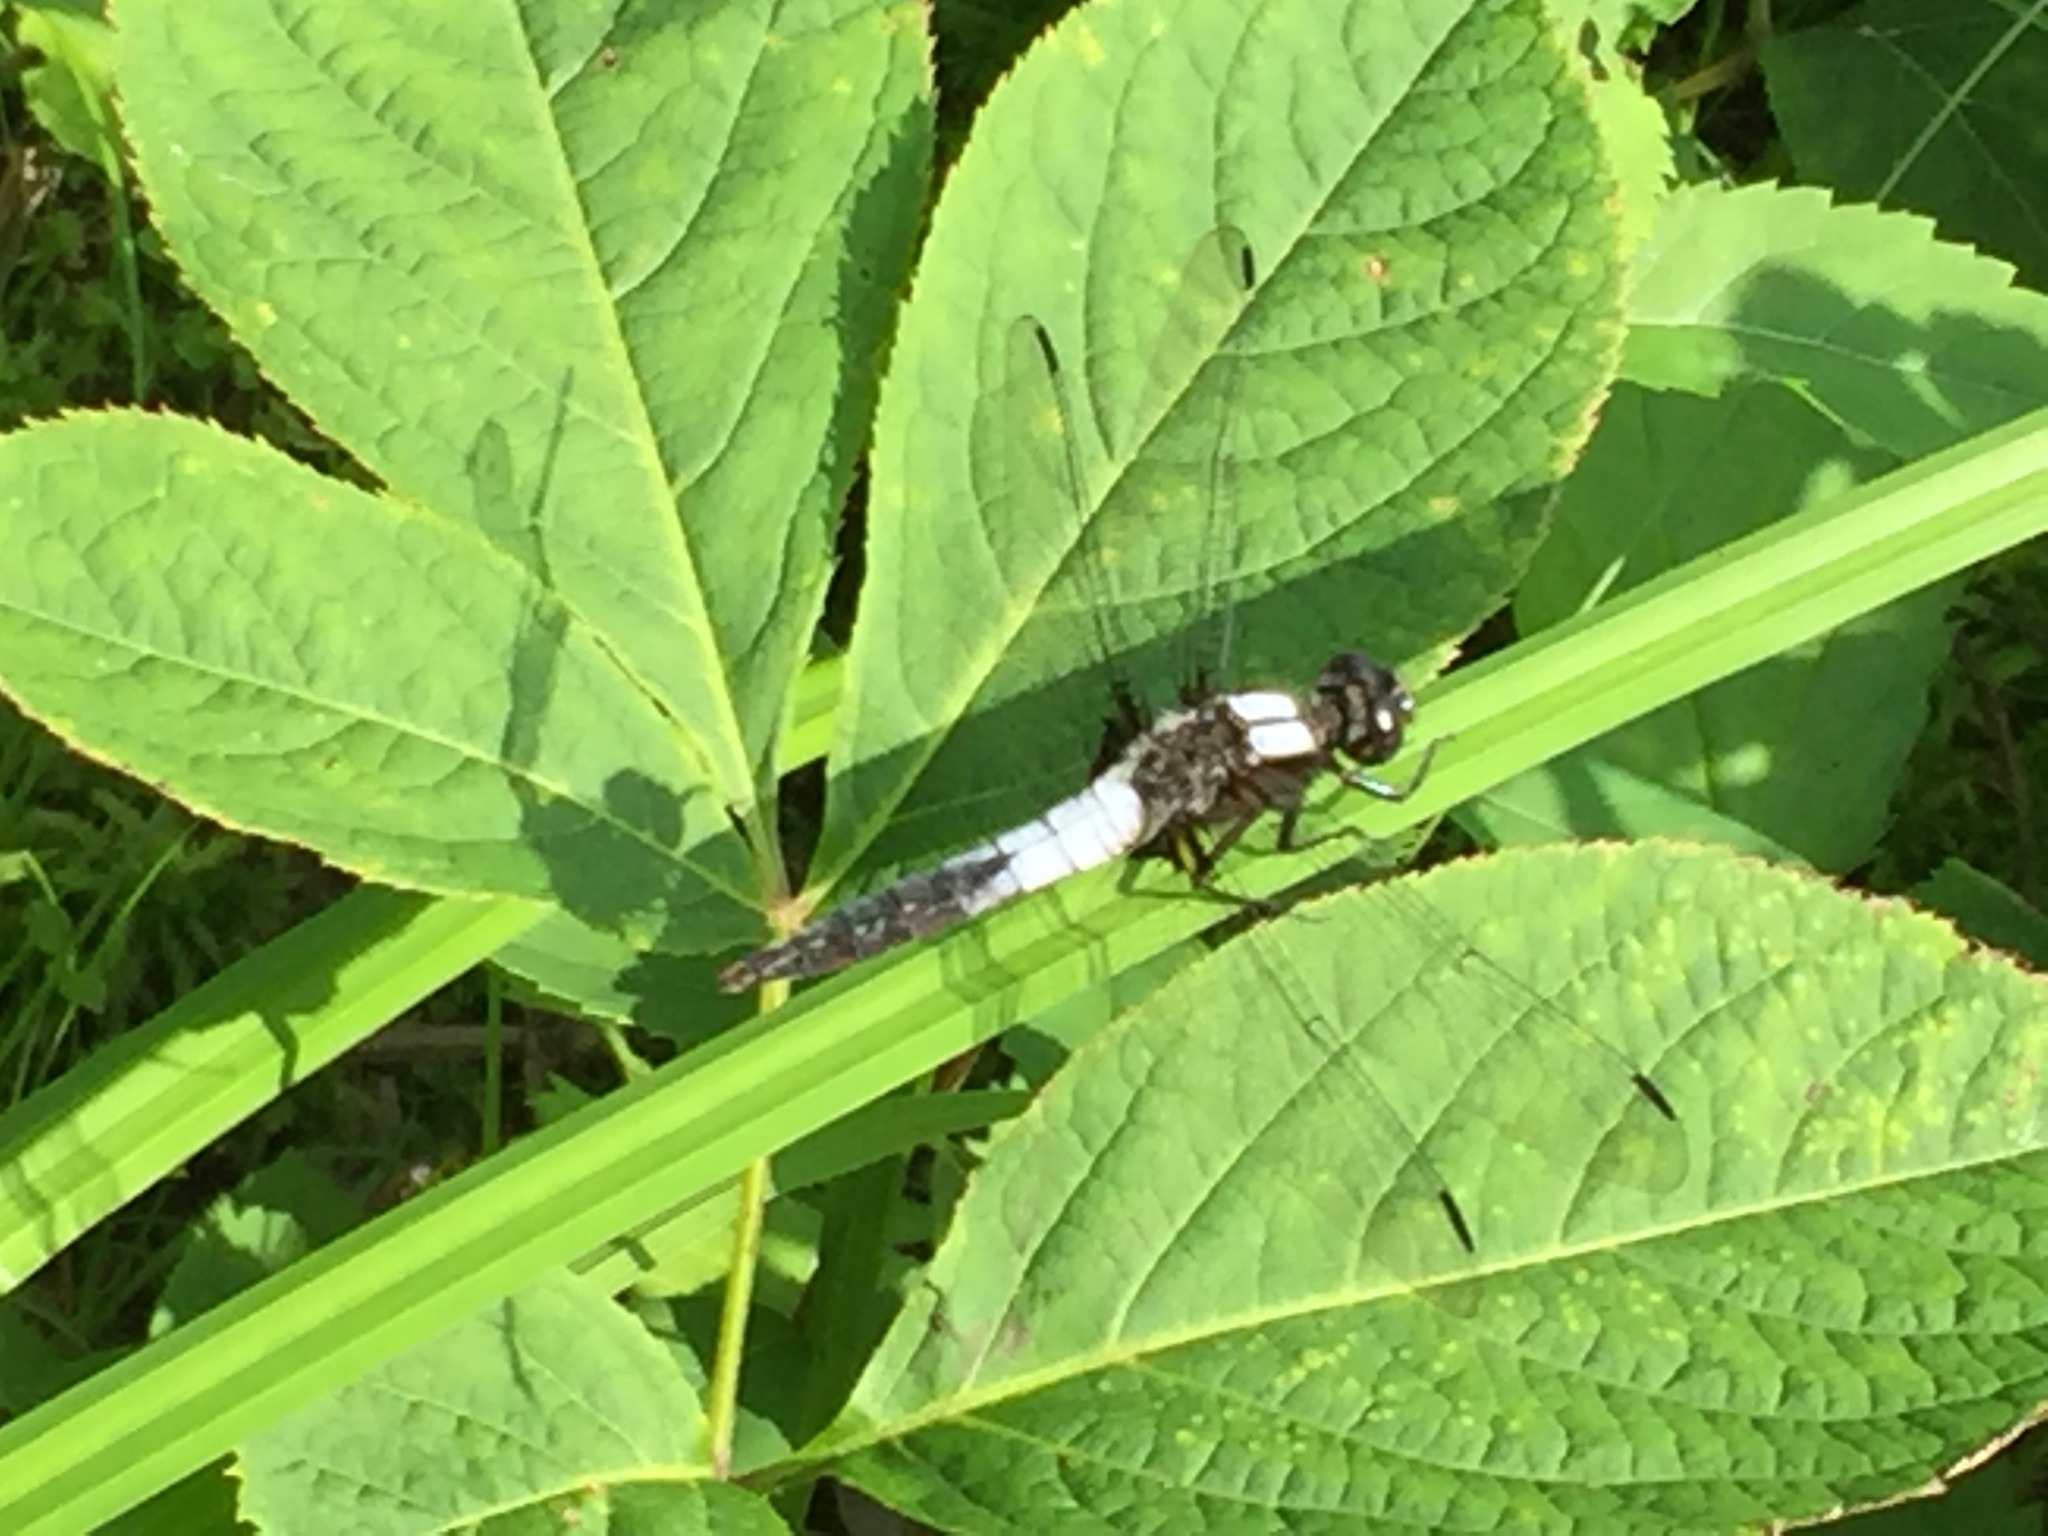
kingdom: Animalia
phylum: Arthropoda
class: Insecta
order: Odonata
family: Libellulidae
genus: Ladona
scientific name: Ladona julia
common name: Chalk-fronted corporal
